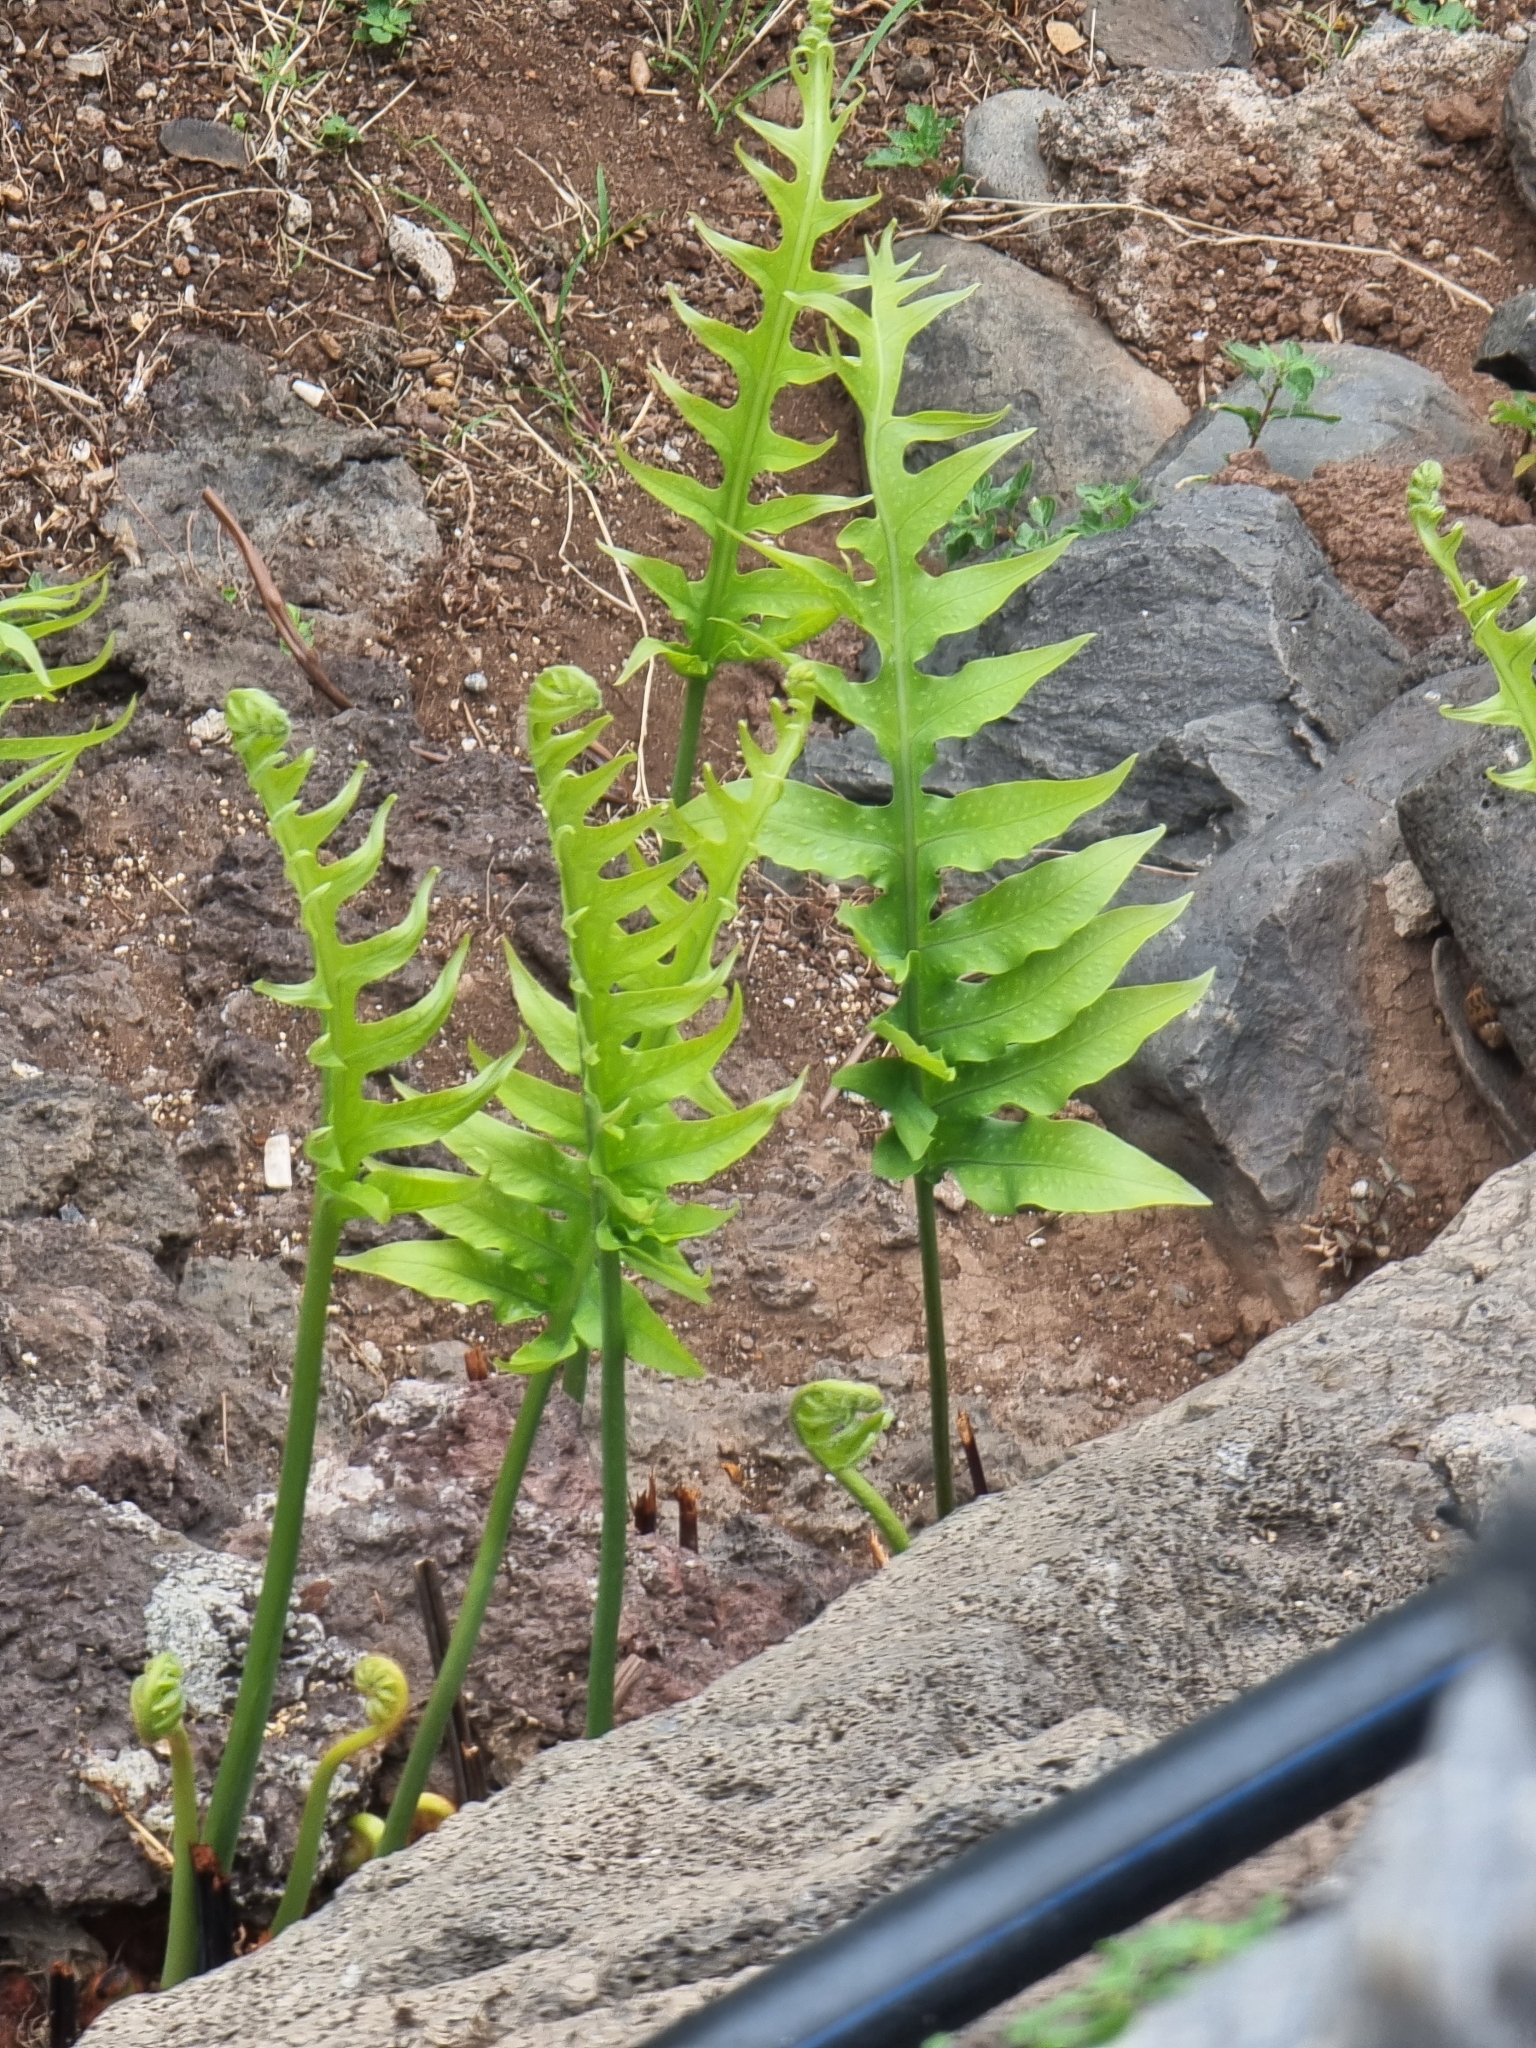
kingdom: Plantae
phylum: Tracheophyta
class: Polypodiopsida
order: Polypodiales
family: Polypodiaceae
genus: Polypodium
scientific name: Polypodium macaronesicum
